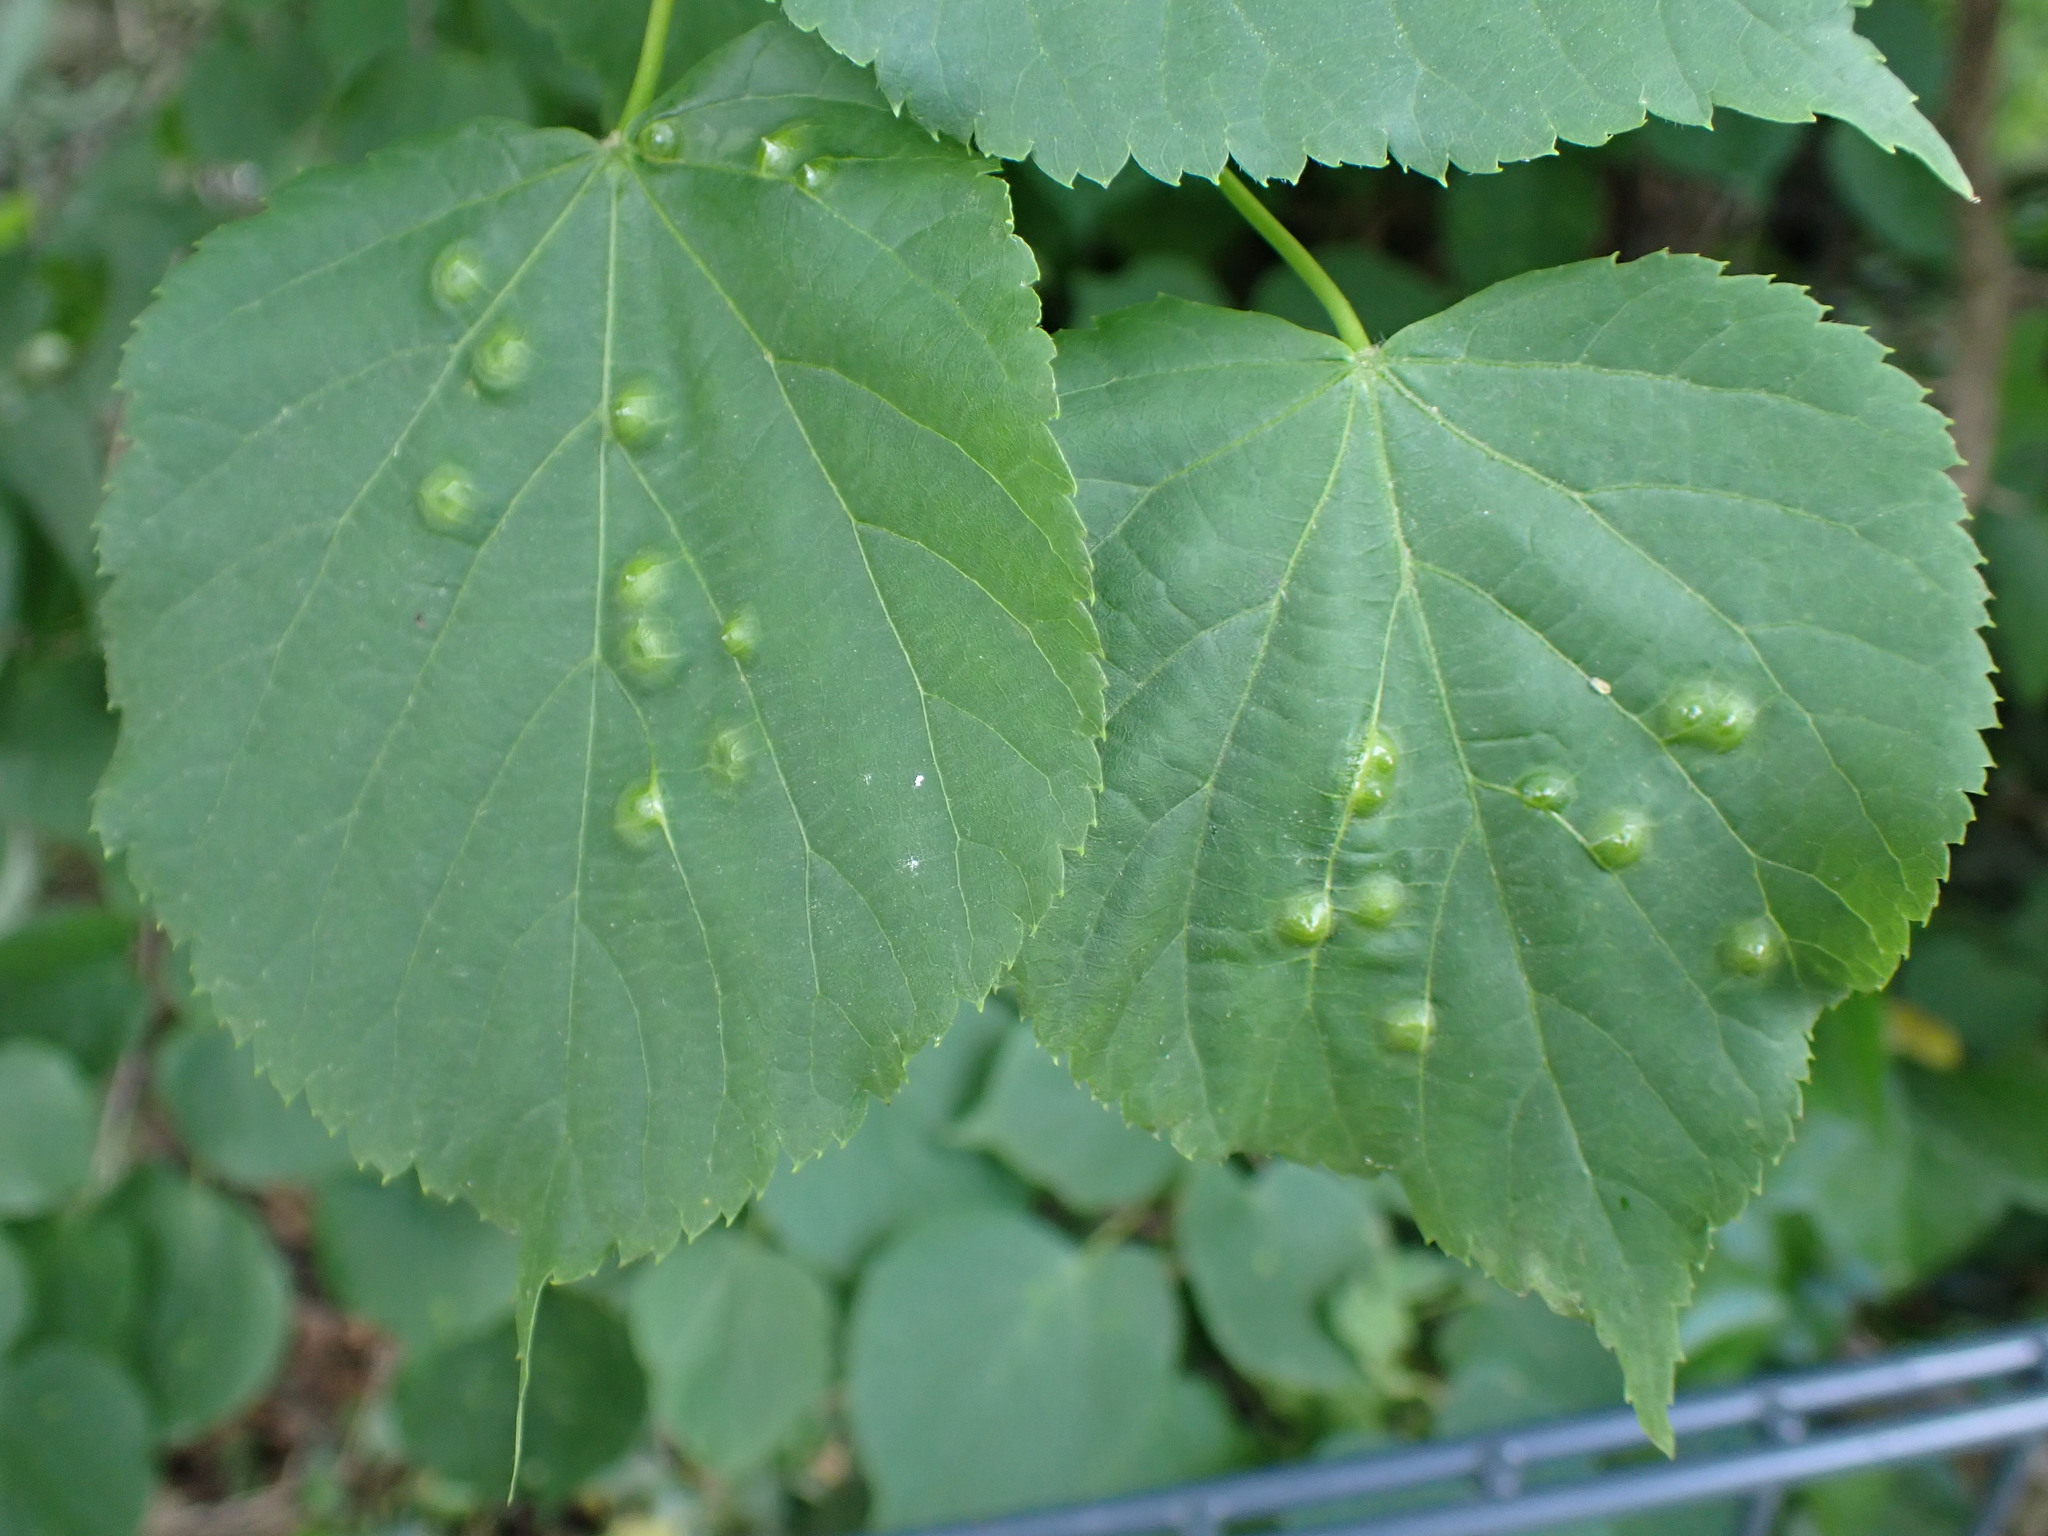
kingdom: Animalia
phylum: Arthropoda
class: Insecta
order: Diptera
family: Cecidomyiidae
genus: Didymomyia
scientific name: Didymomyia tiliacea
